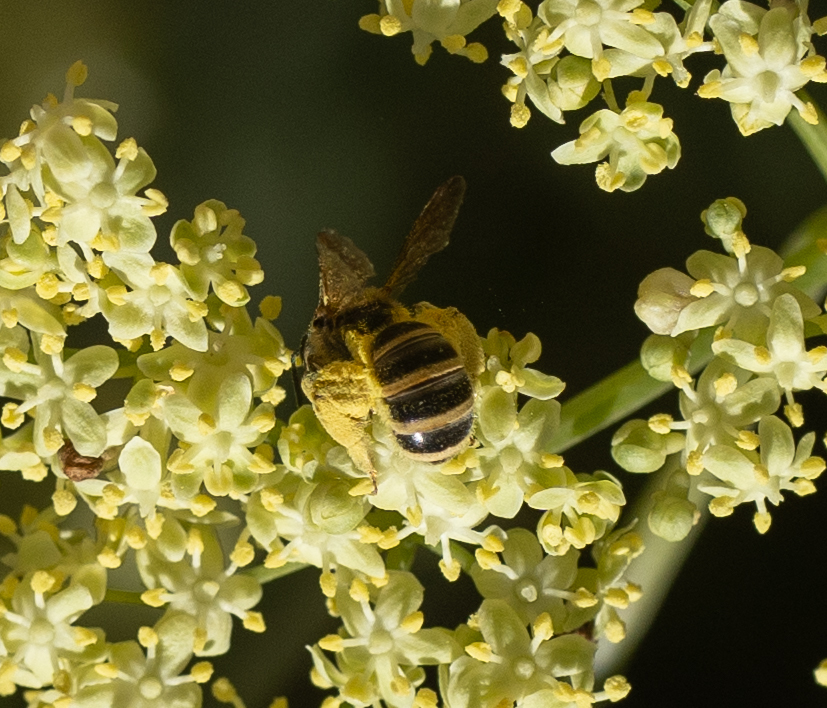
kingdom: Animalia
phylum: Arthropoda
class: Insecta
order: Hymenoptera
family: Halictidae
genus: Halictus
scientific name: Halictus ligatus
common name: Ligated furrow bee
